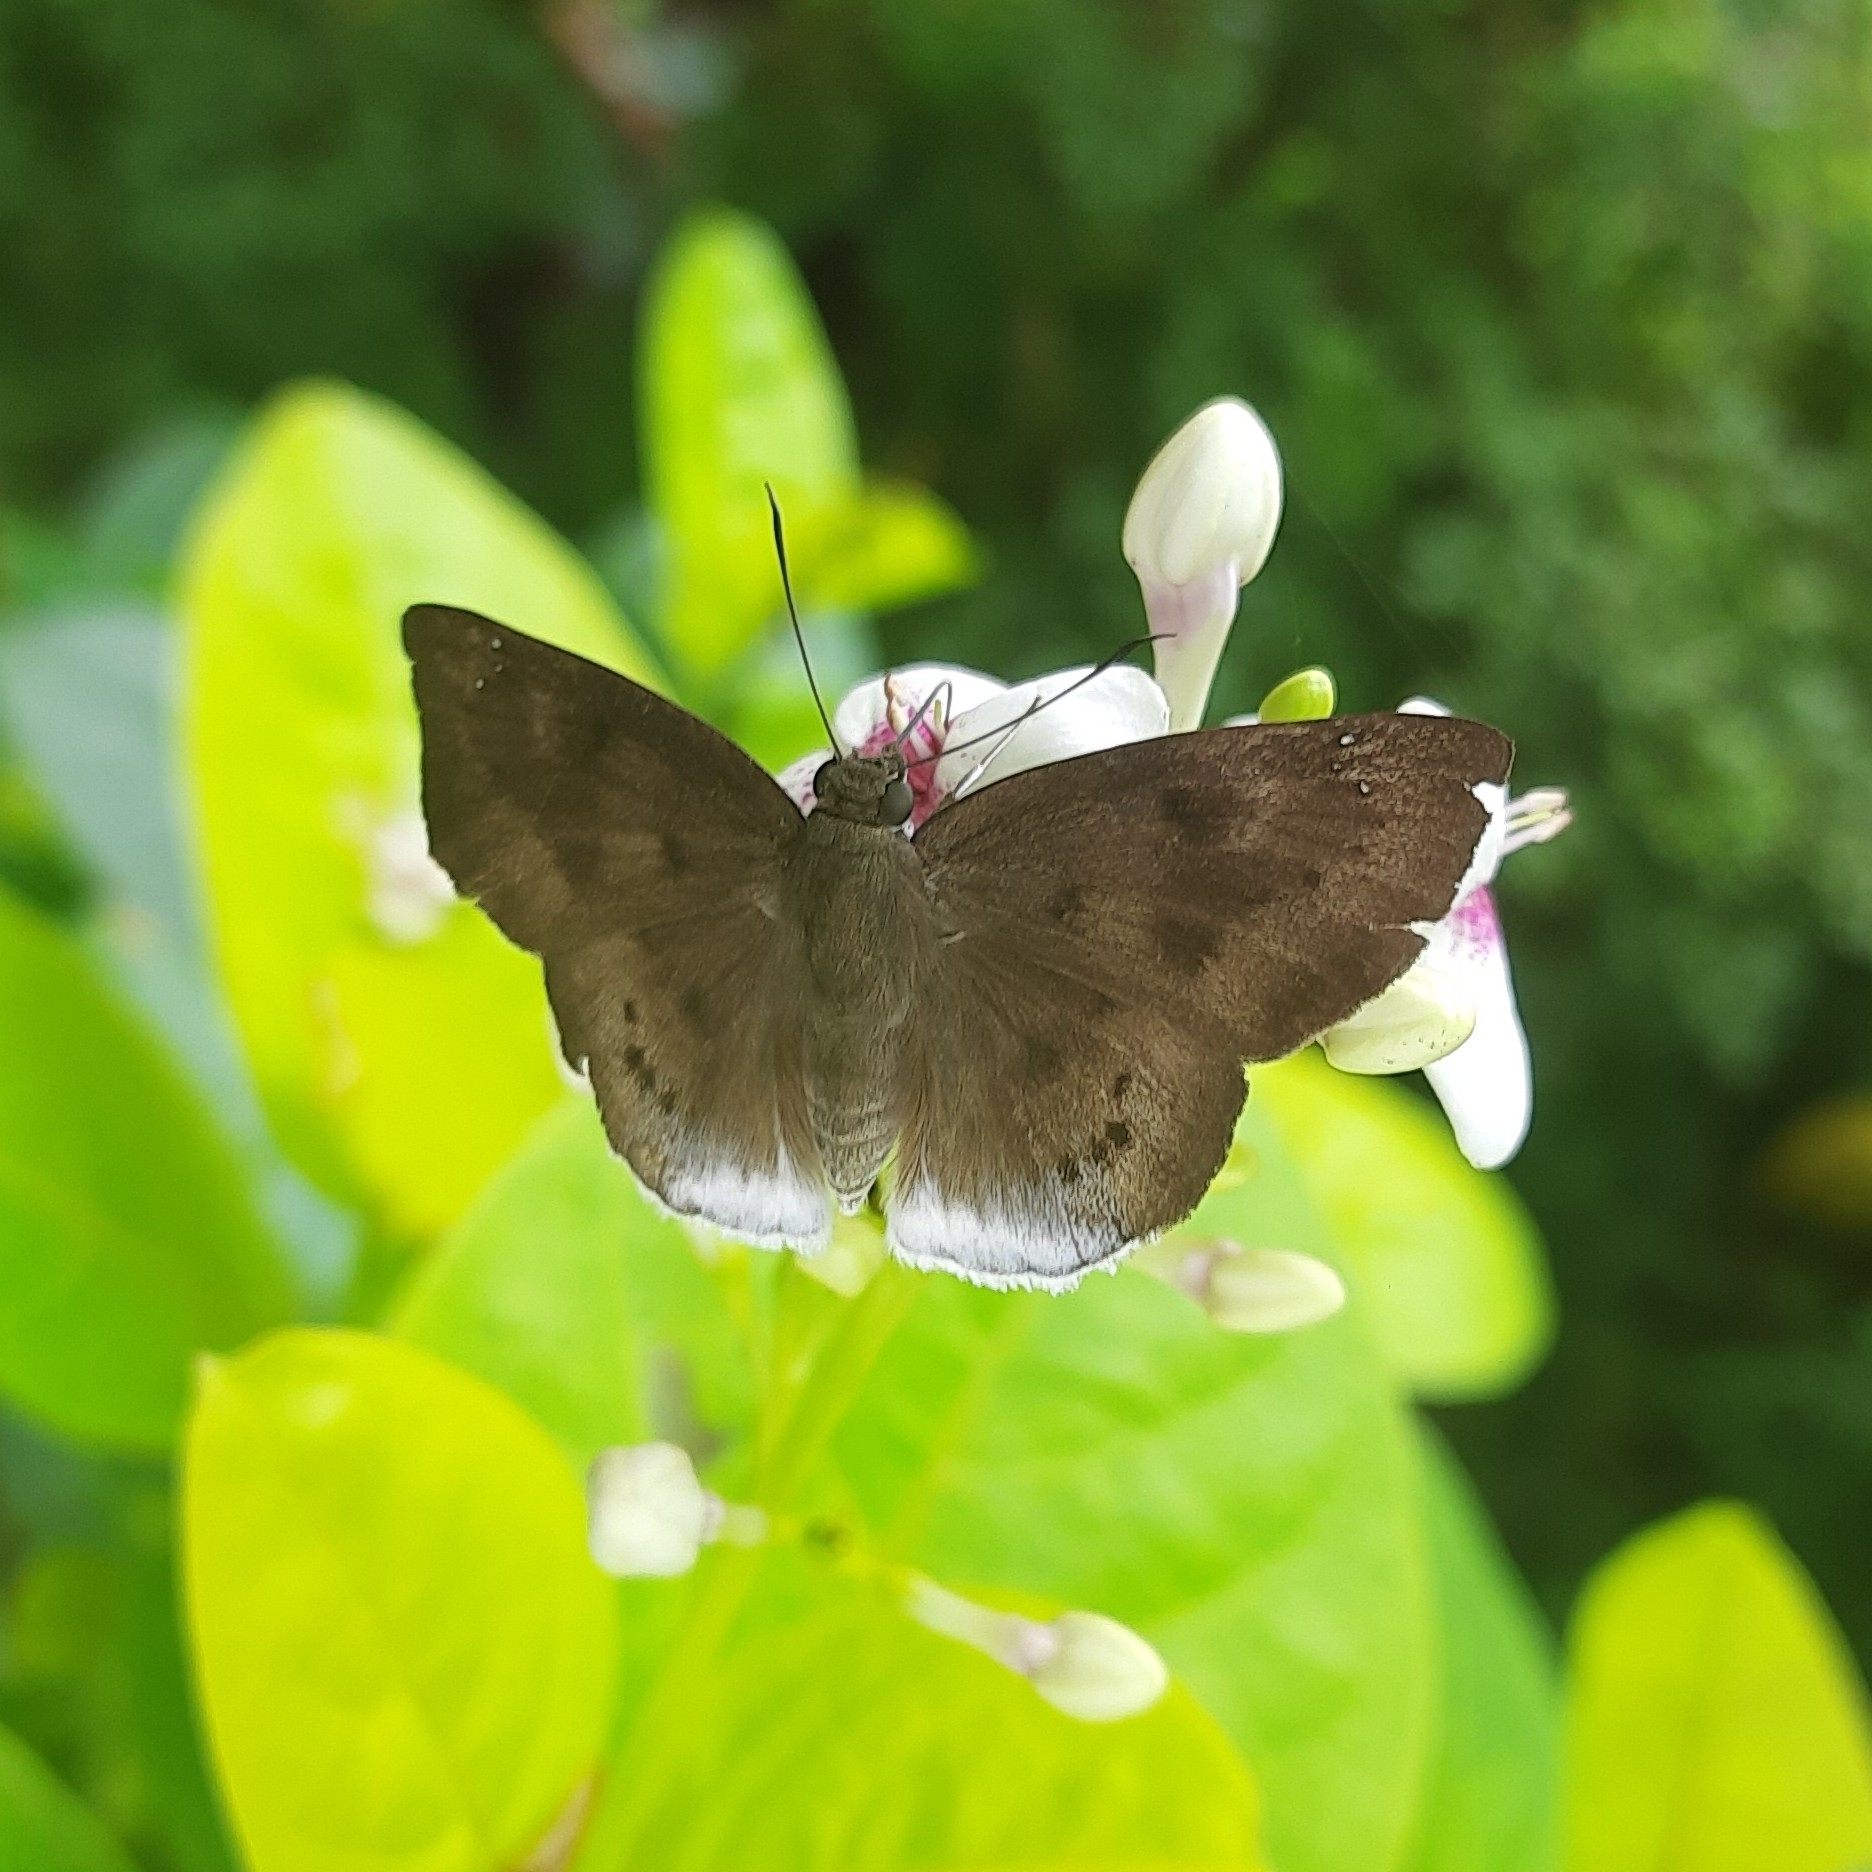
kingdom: Animalia
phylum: Arthropoda
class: Insecta
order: Lepidoptera
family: Hesperiidae
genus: Tagiades
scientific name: Tagiades gana
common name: Suffused snow flat
